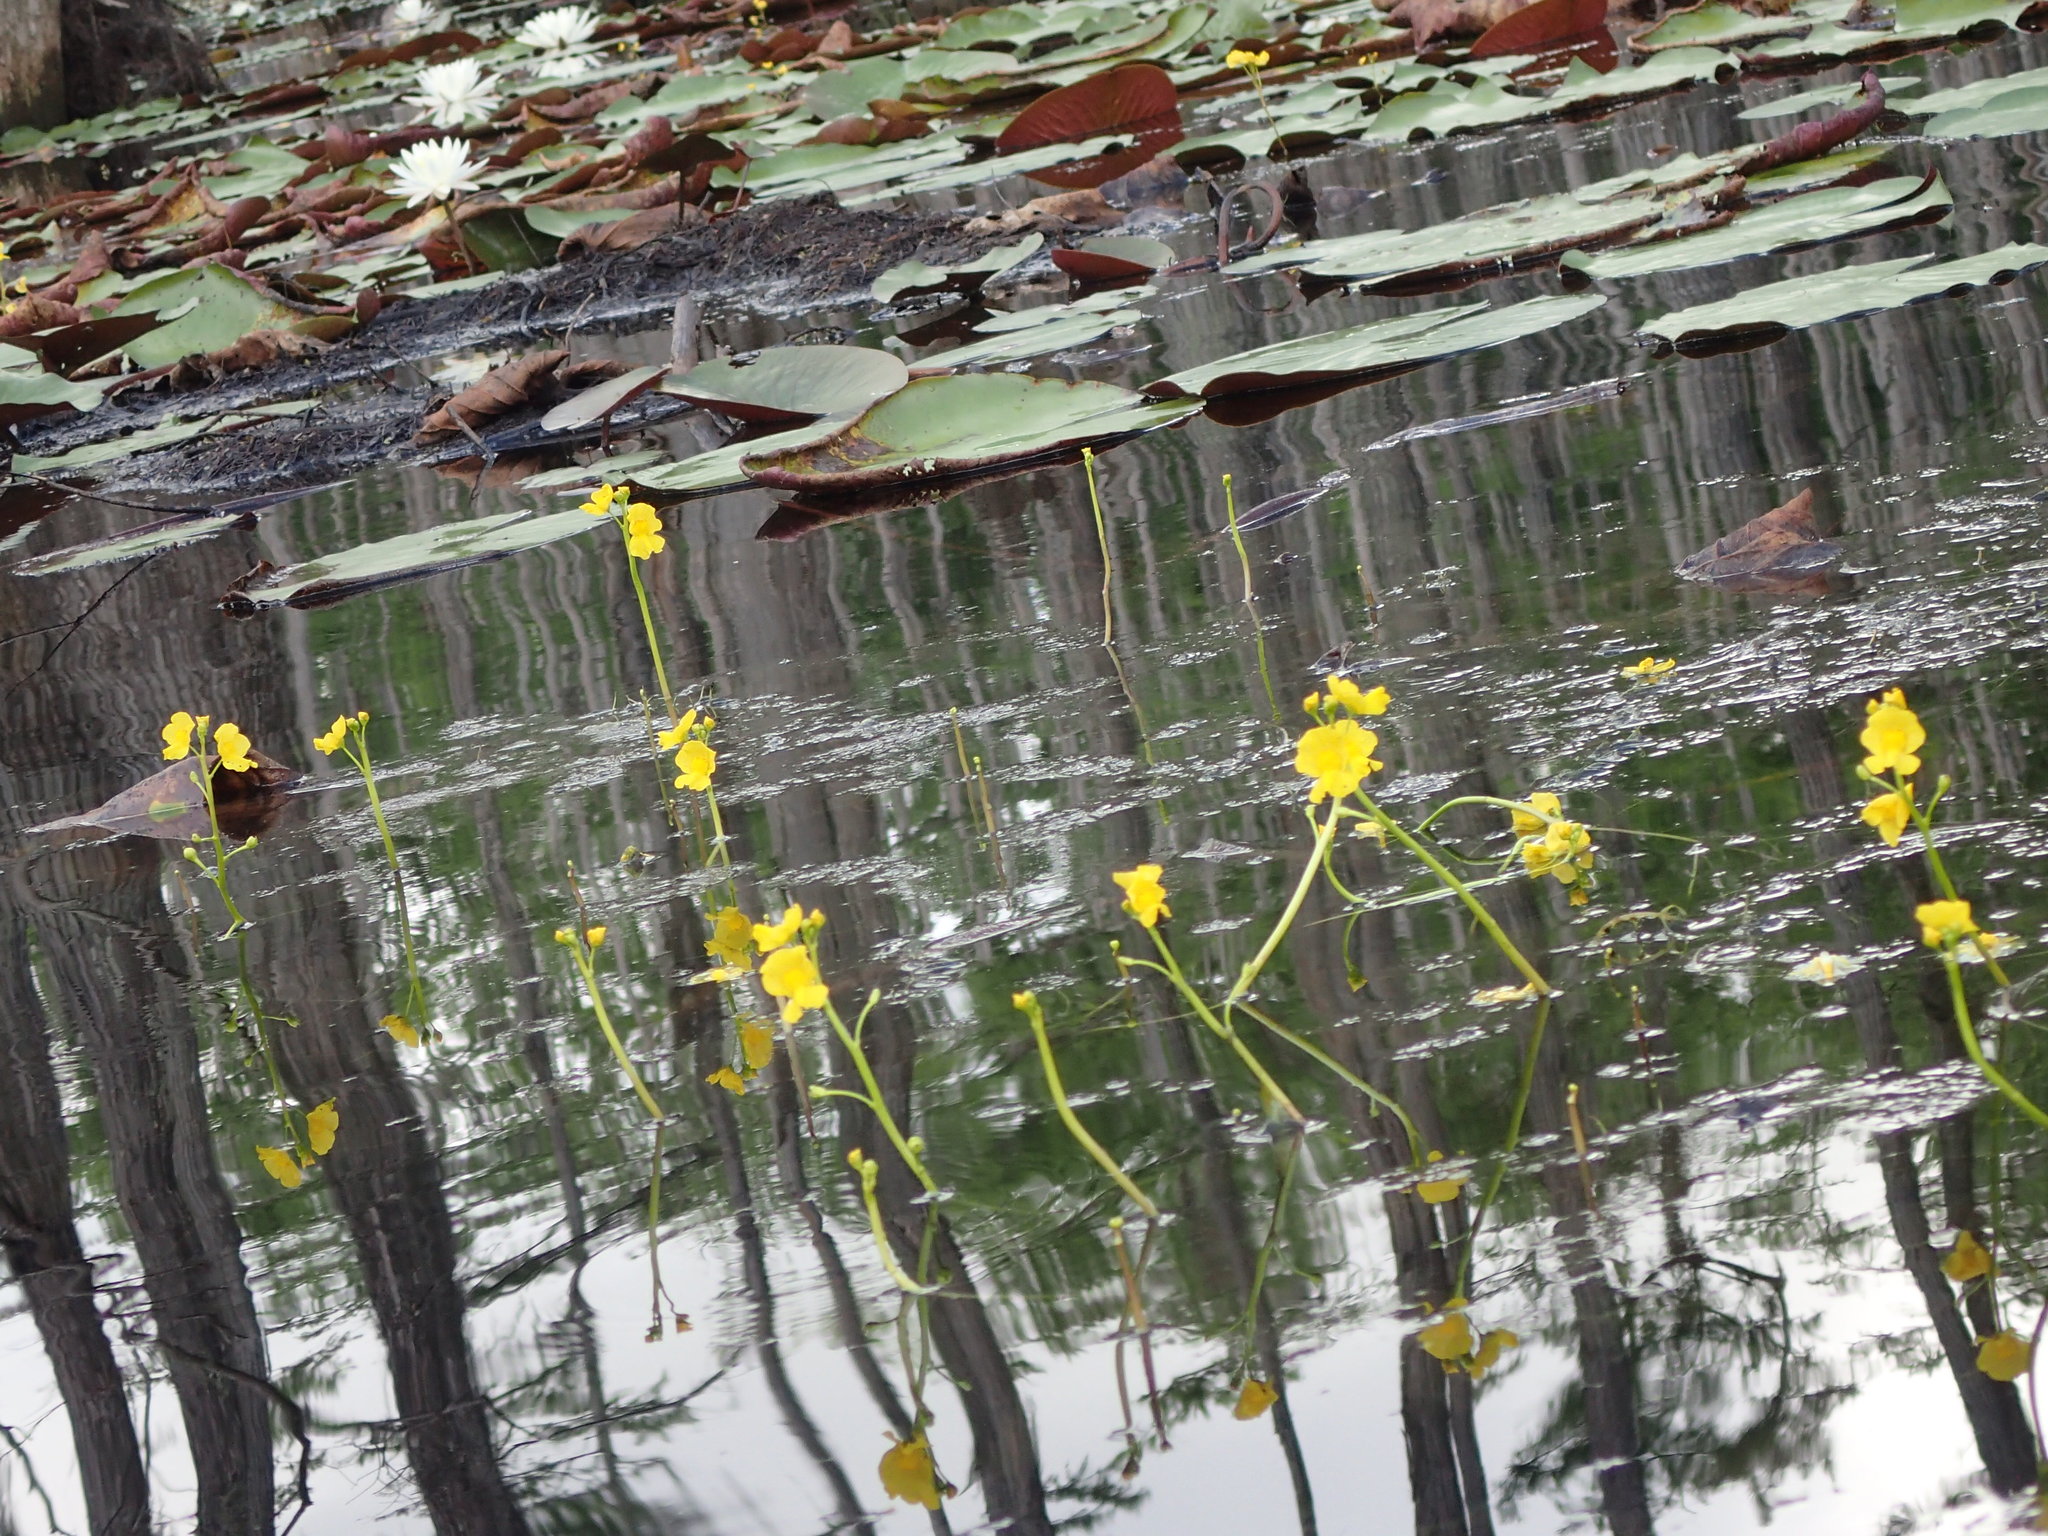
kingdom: Plantae
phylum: Tracheophyta
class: Magnoliopsida
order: Lamiales
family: Lentibulariaceae
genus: Utricularia
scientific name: Utricularia floridana
